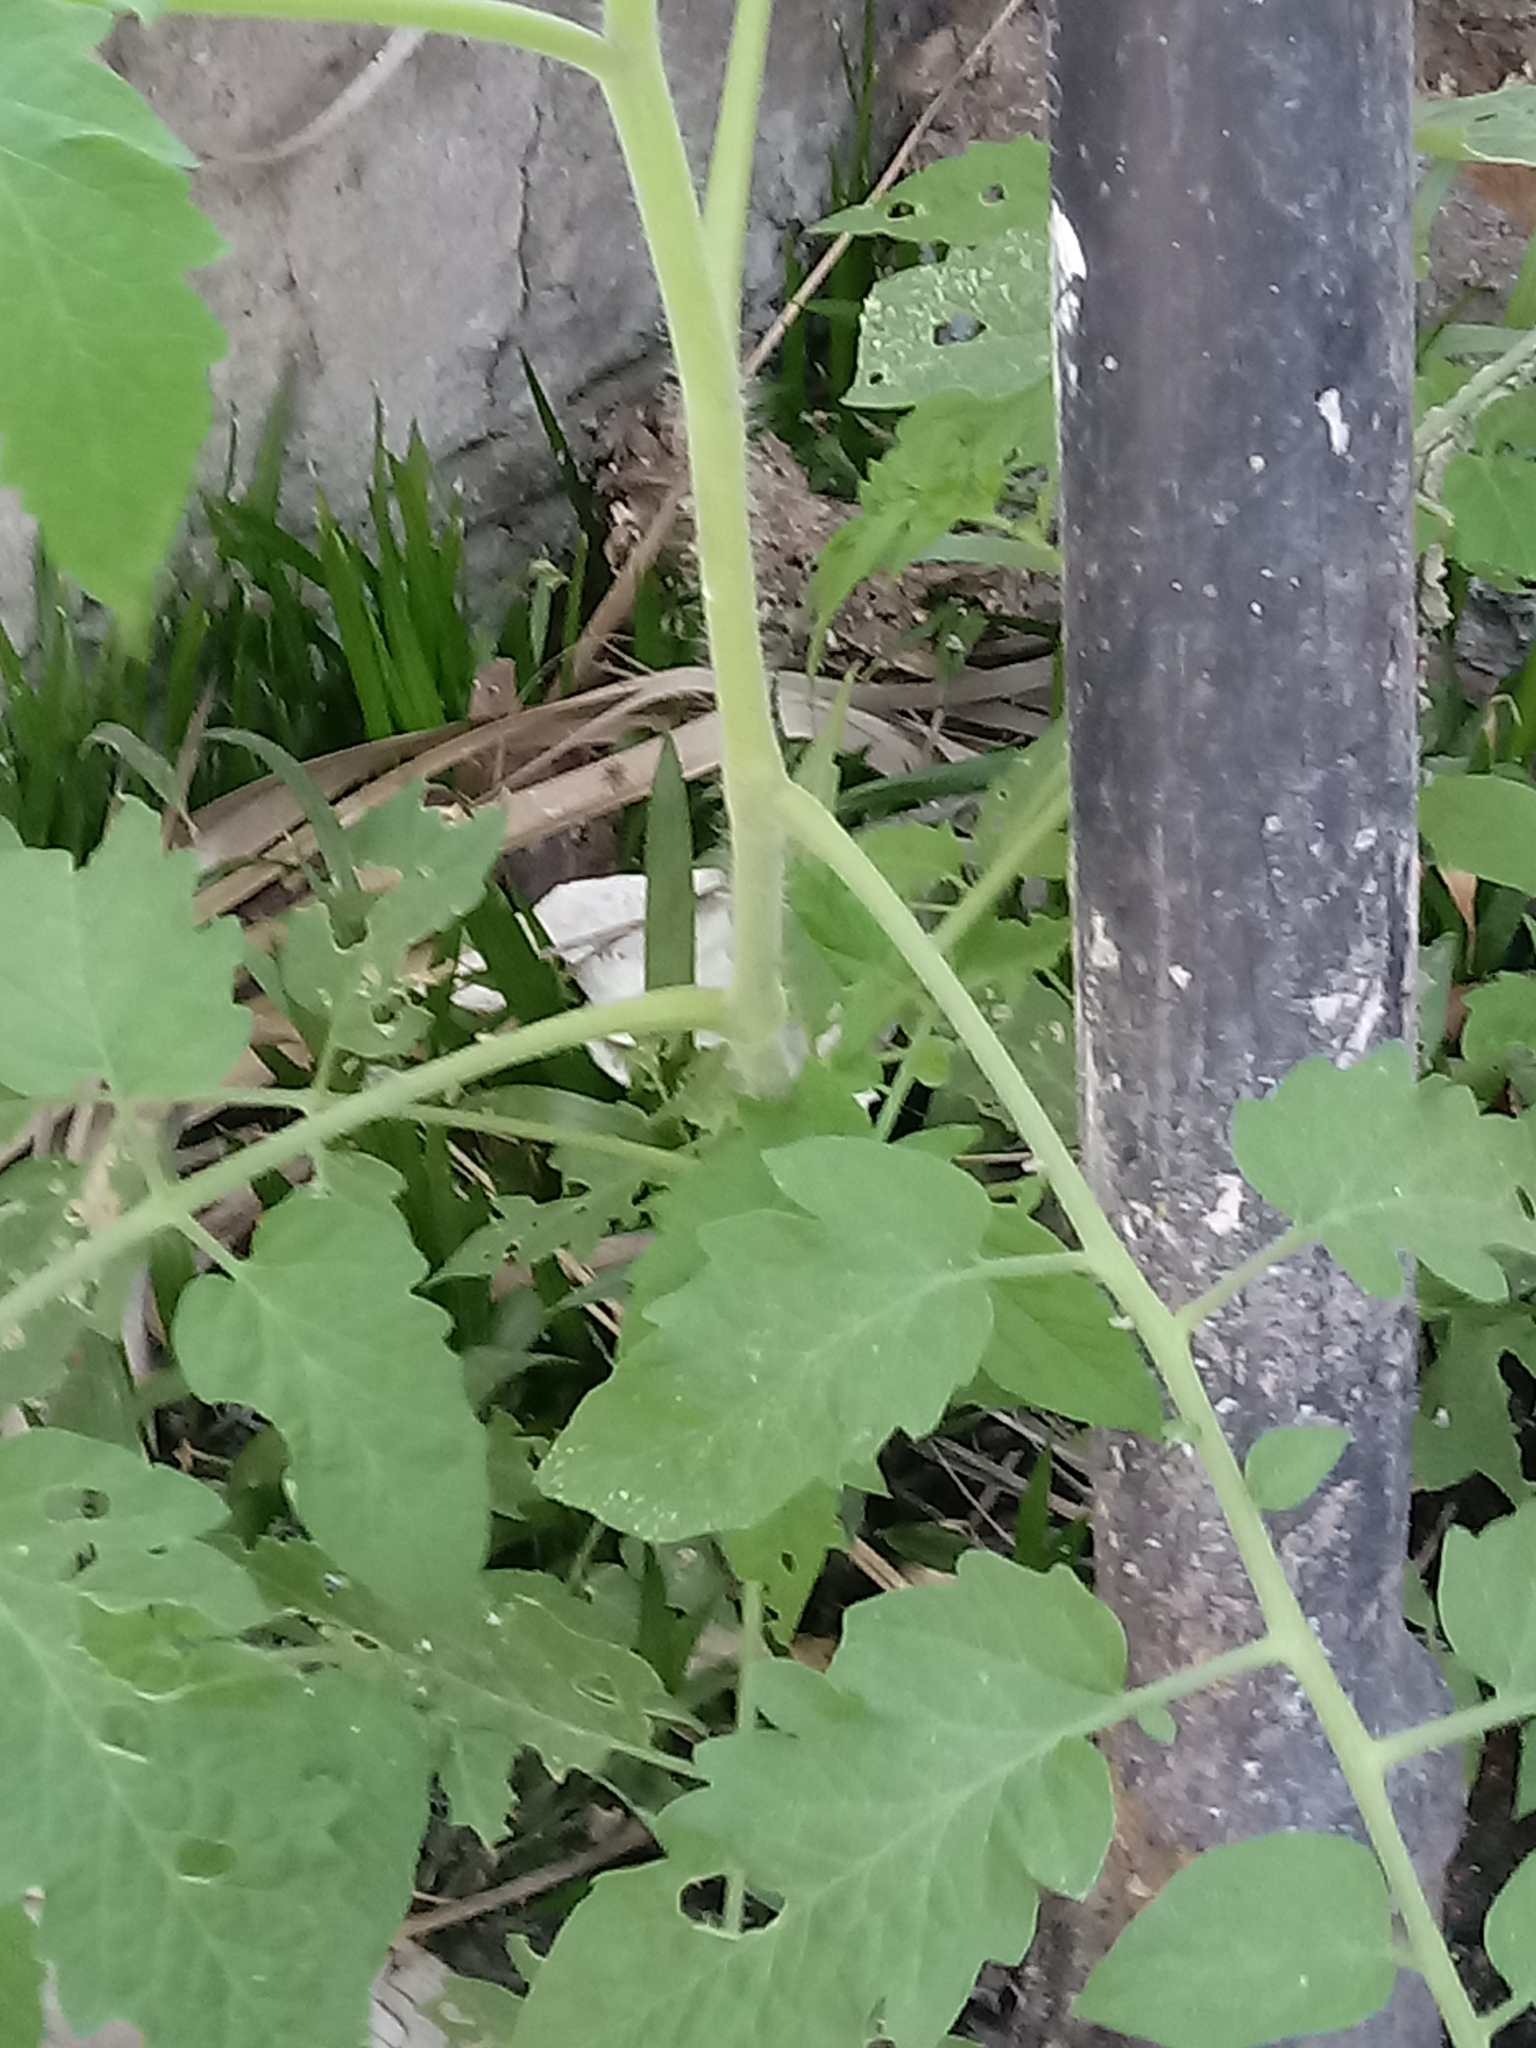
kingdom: Plantae
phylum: Tracheophyta
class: Magnoliopsida
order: Solanales
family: Solanaceae
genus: Solanum
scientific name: Solanum lycopersicum
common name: Garden tomato
